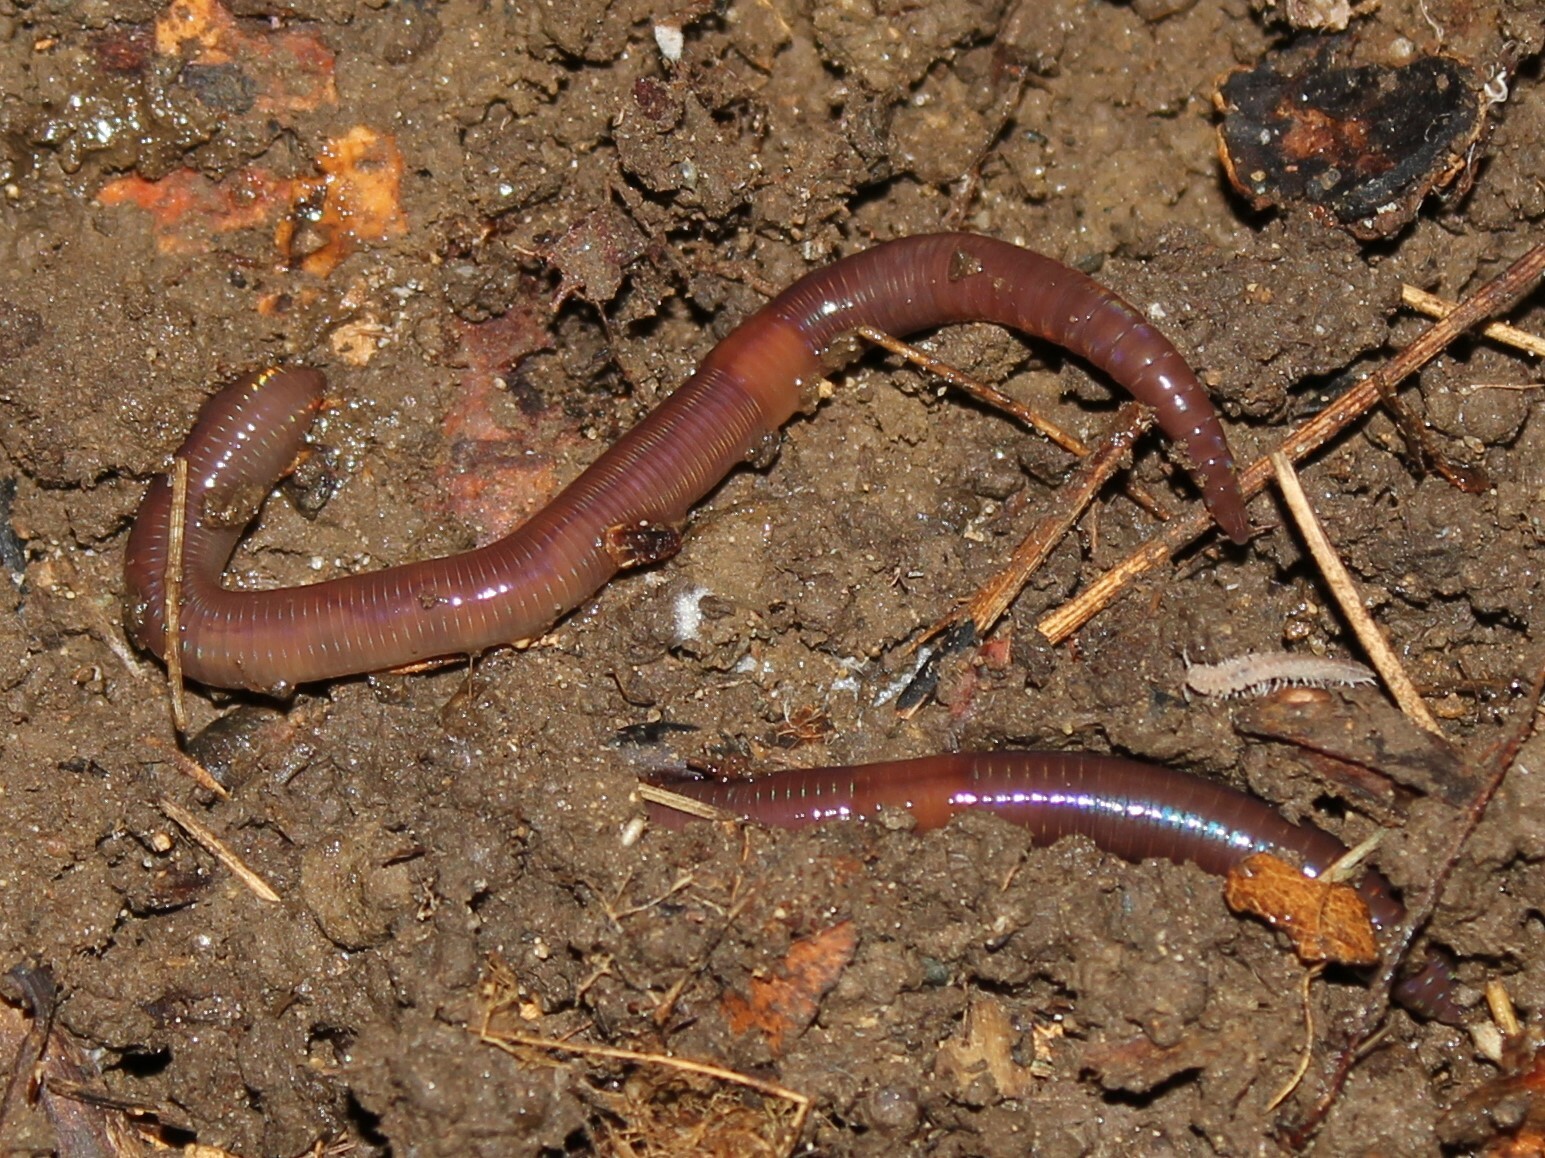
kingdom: Animalia
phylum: Annelida
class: Clitellata
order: Crassiclitellata
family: Lumbricidae
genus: Lumbricus
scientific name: Lumbricus rubellus
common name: Red worm
